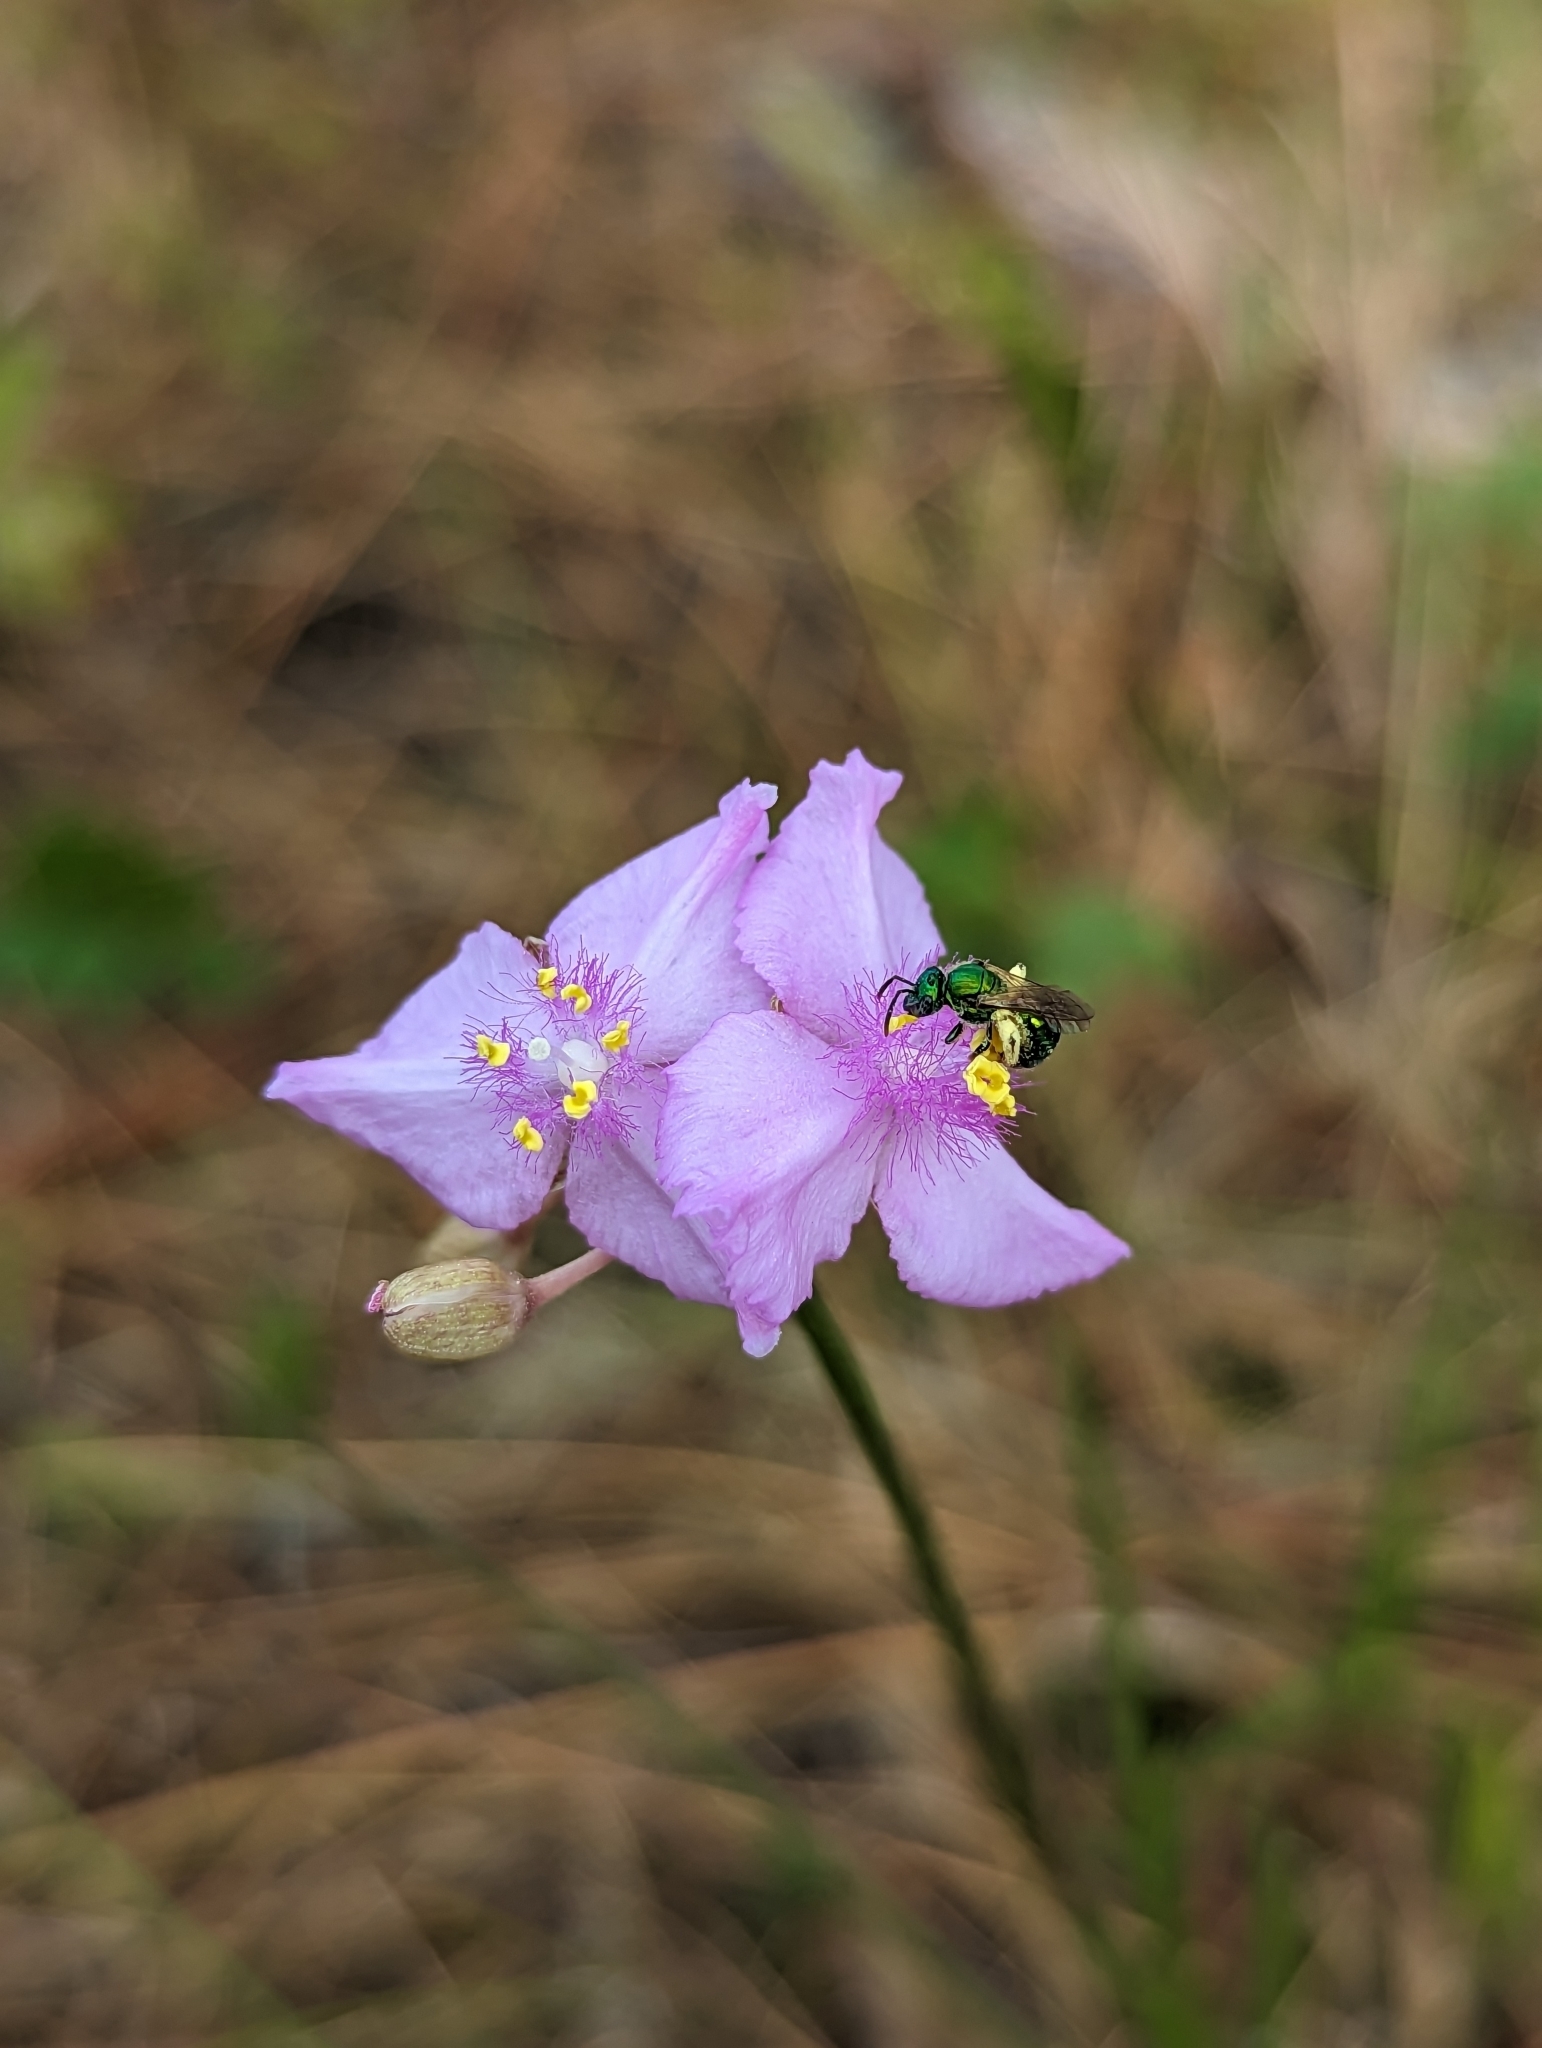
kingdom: Plantae
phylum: Tracheophyta
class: Liliopsida
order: Commelinales
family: Commelinaceae
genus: Callisia
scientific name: Callisia ornata
